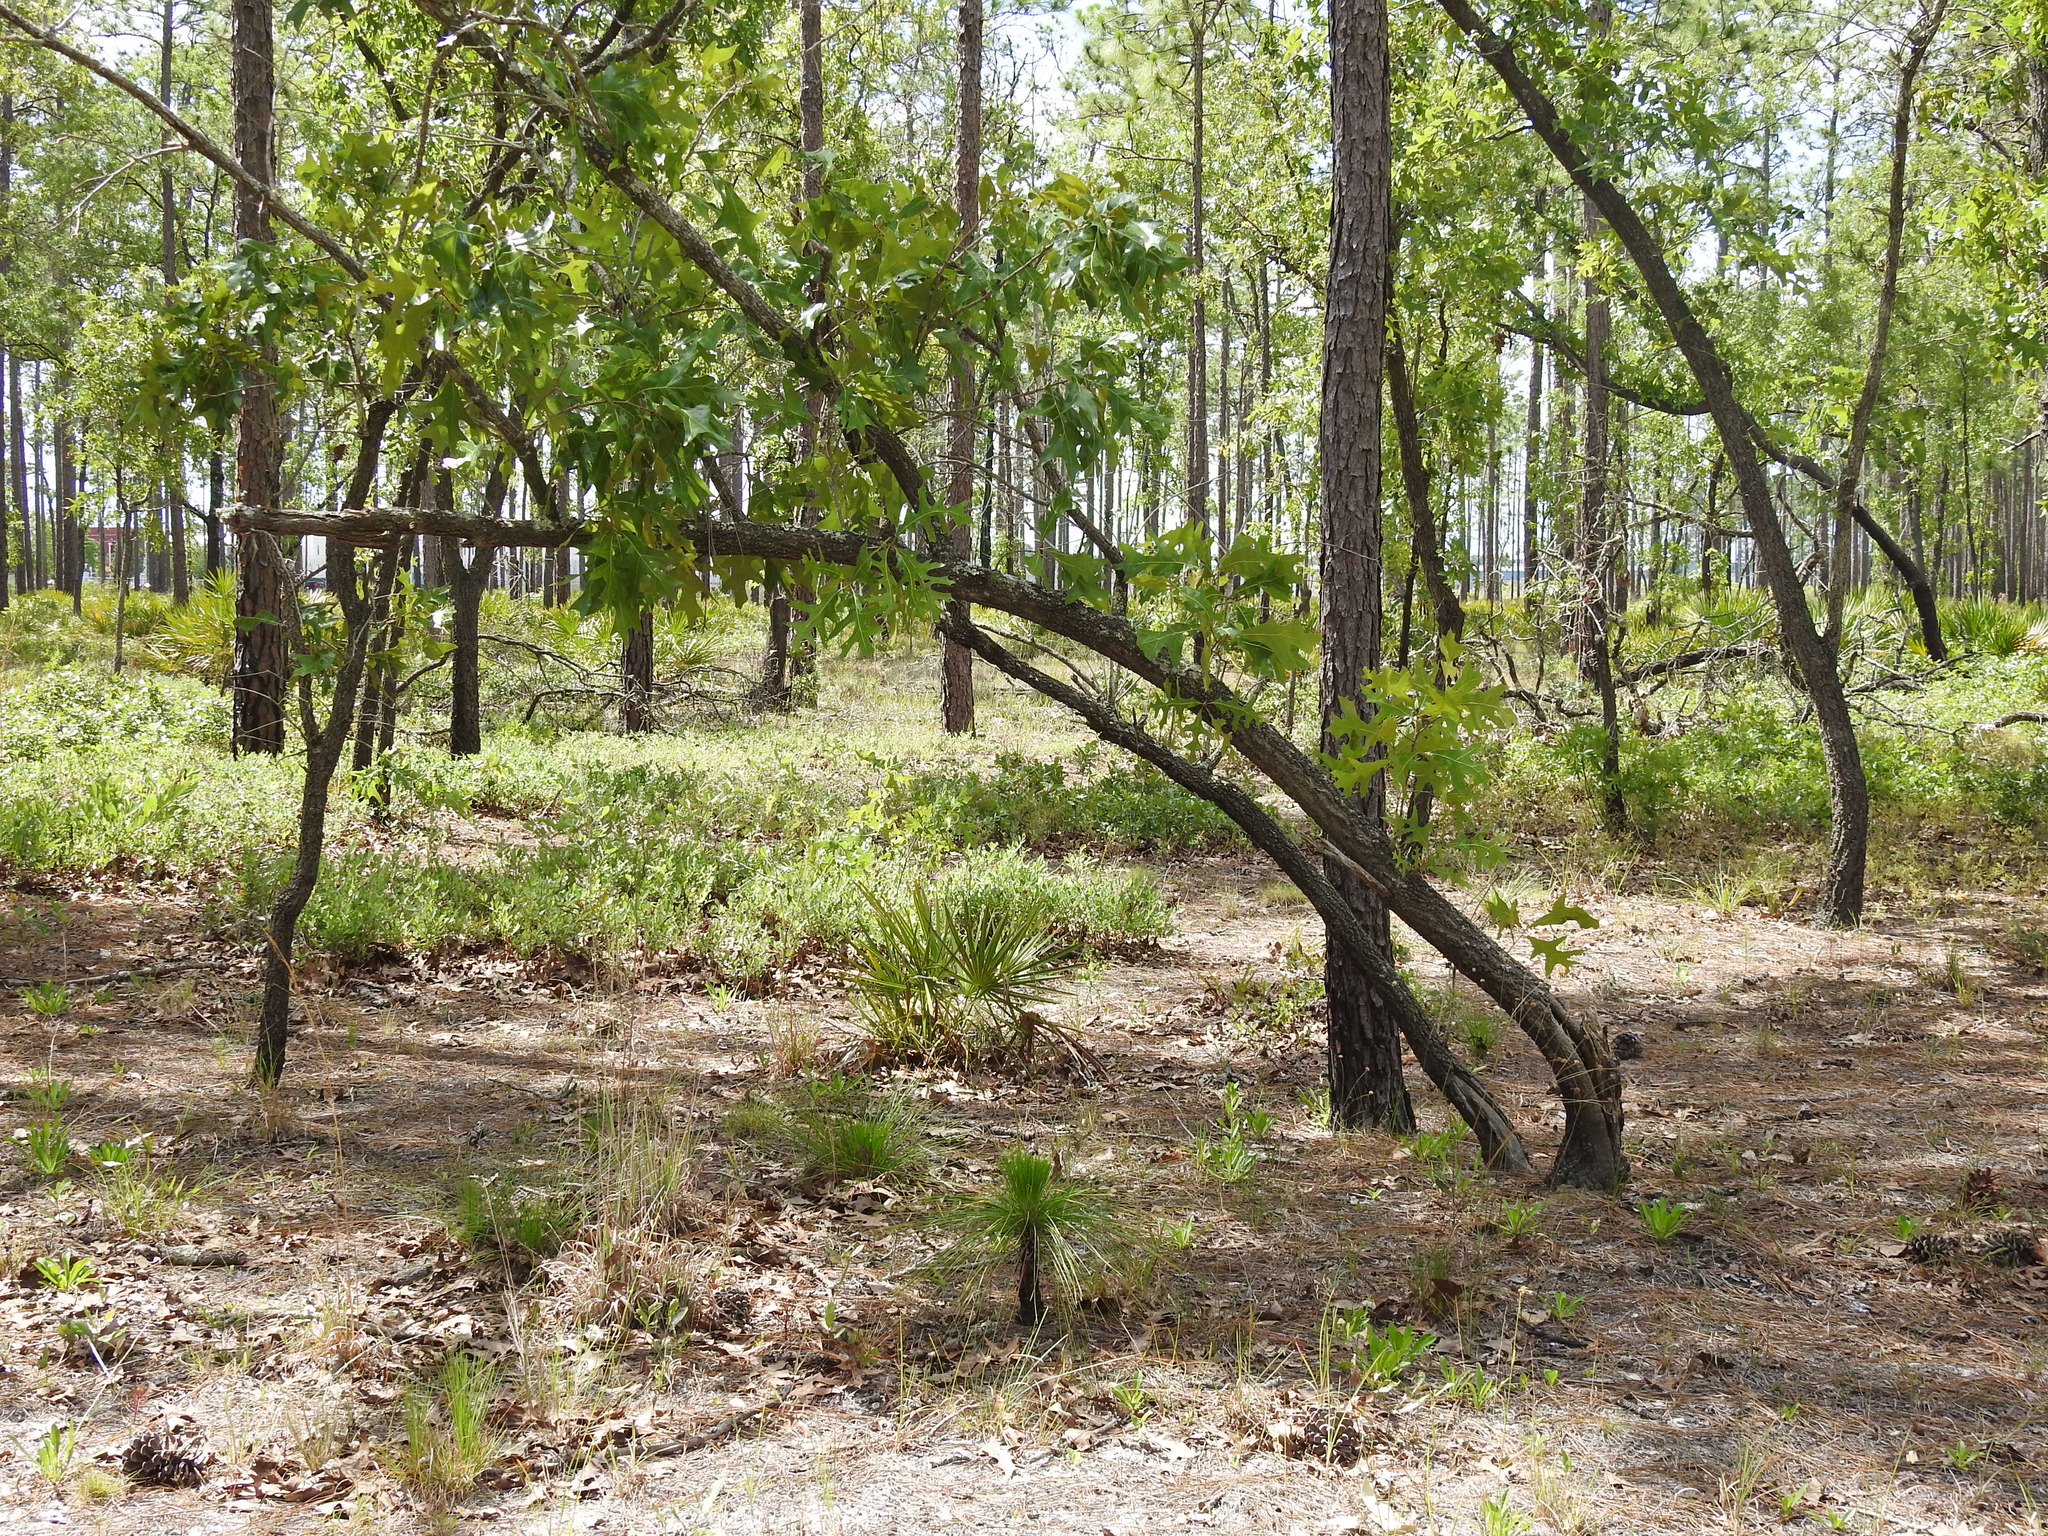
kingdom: Plantae
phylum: Tracheophyta
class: Magnoliopsida
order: Fagales
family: Fagaceae
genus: Quercus
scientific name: Quercus laevis
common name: Turkey oak
